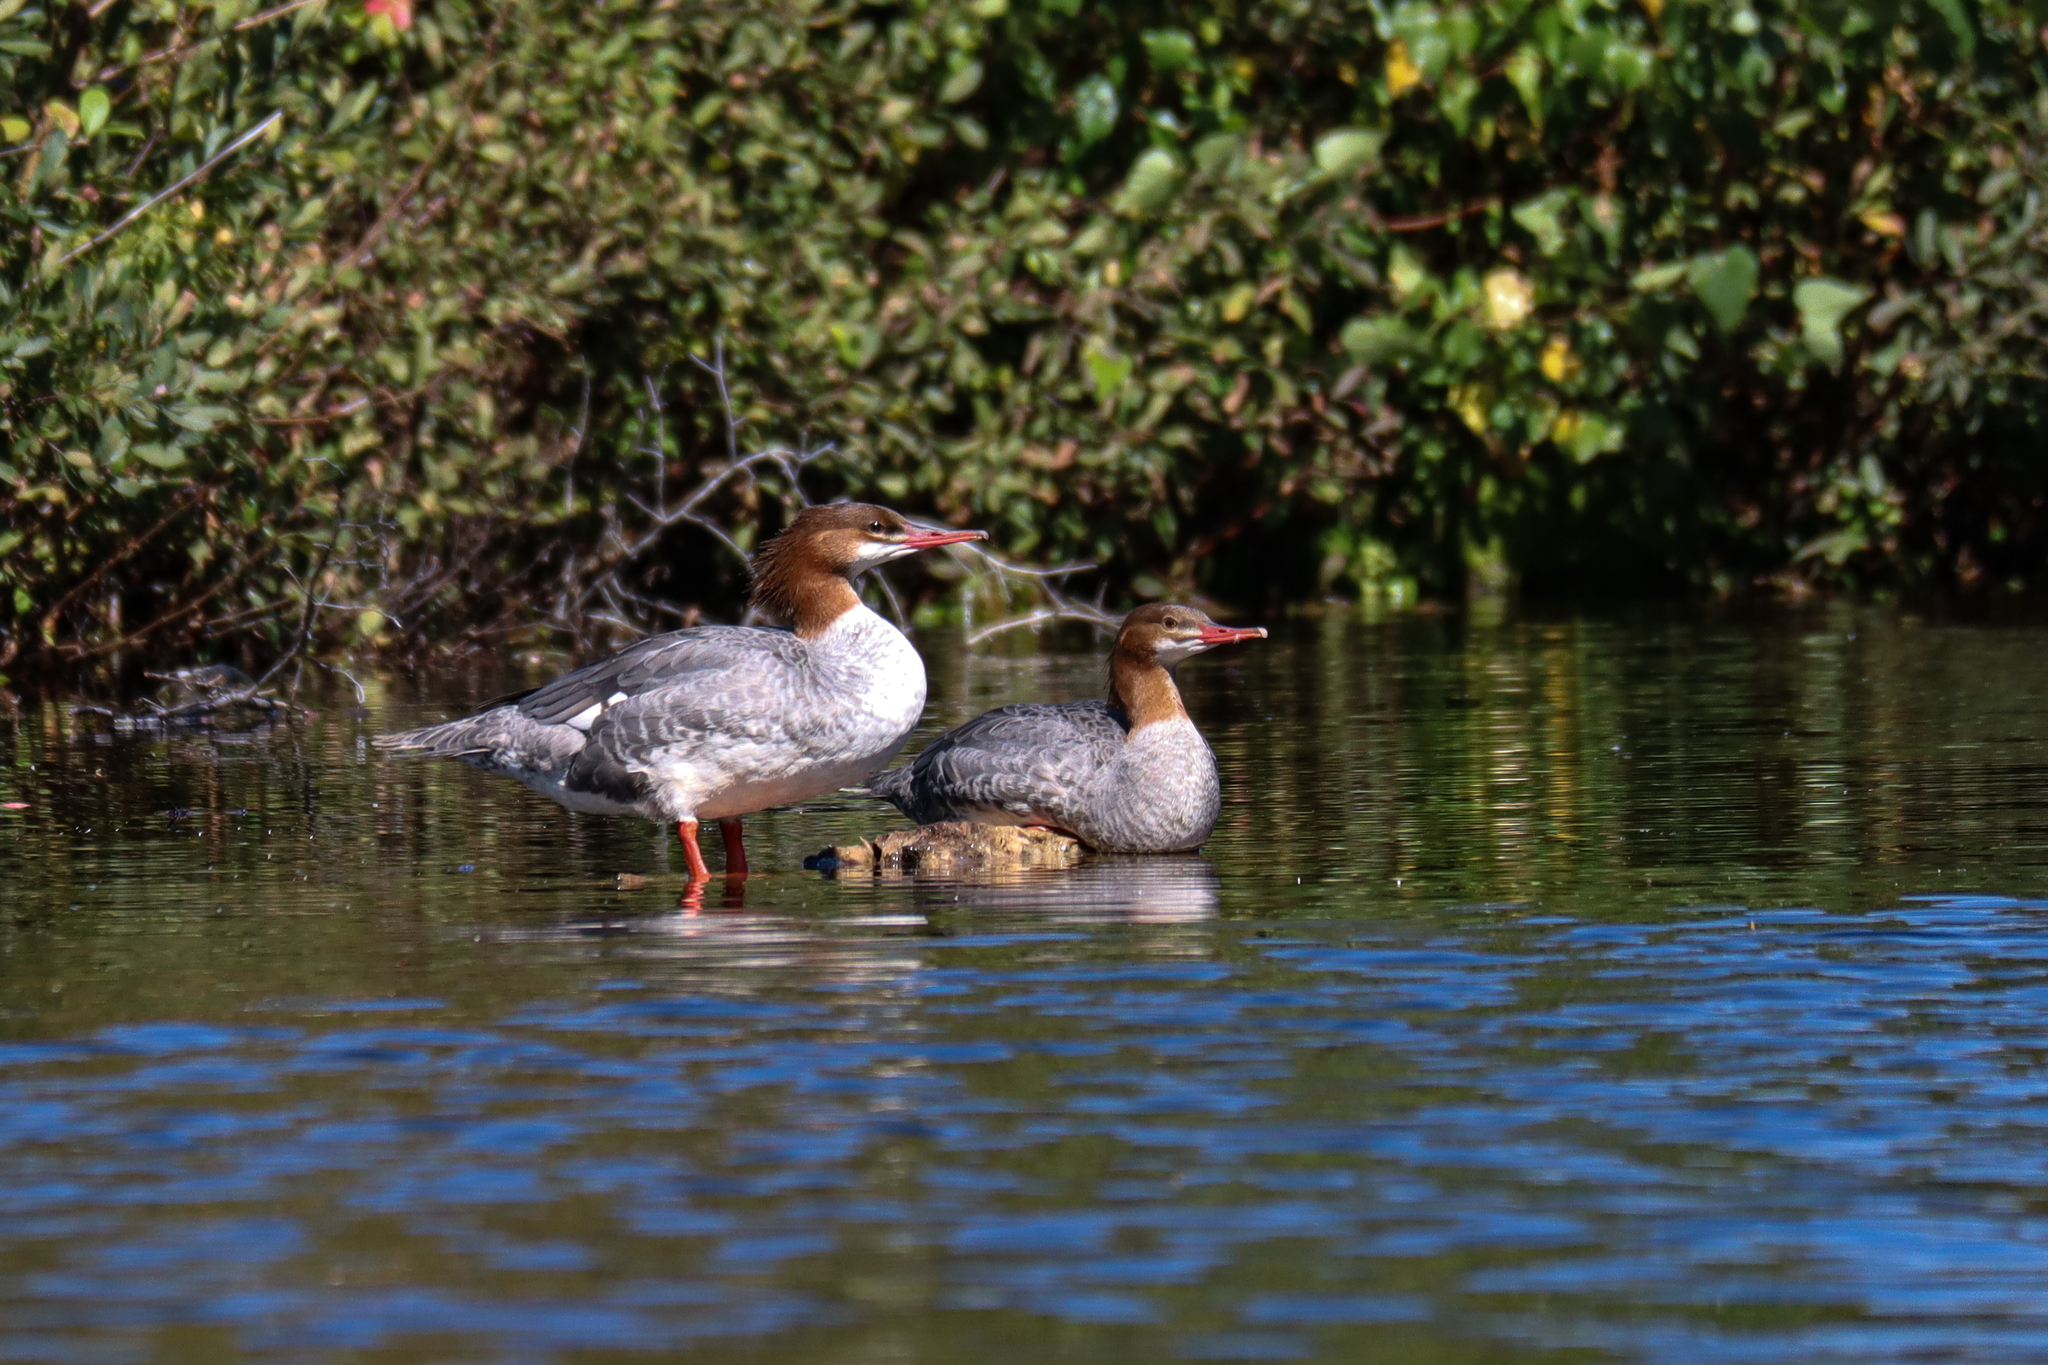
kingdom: Animalia
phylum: Chordata
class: Aves
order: Anseriformes
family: Anatidae
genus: Mergus
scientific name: Mergus merganser
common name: Common merganser
